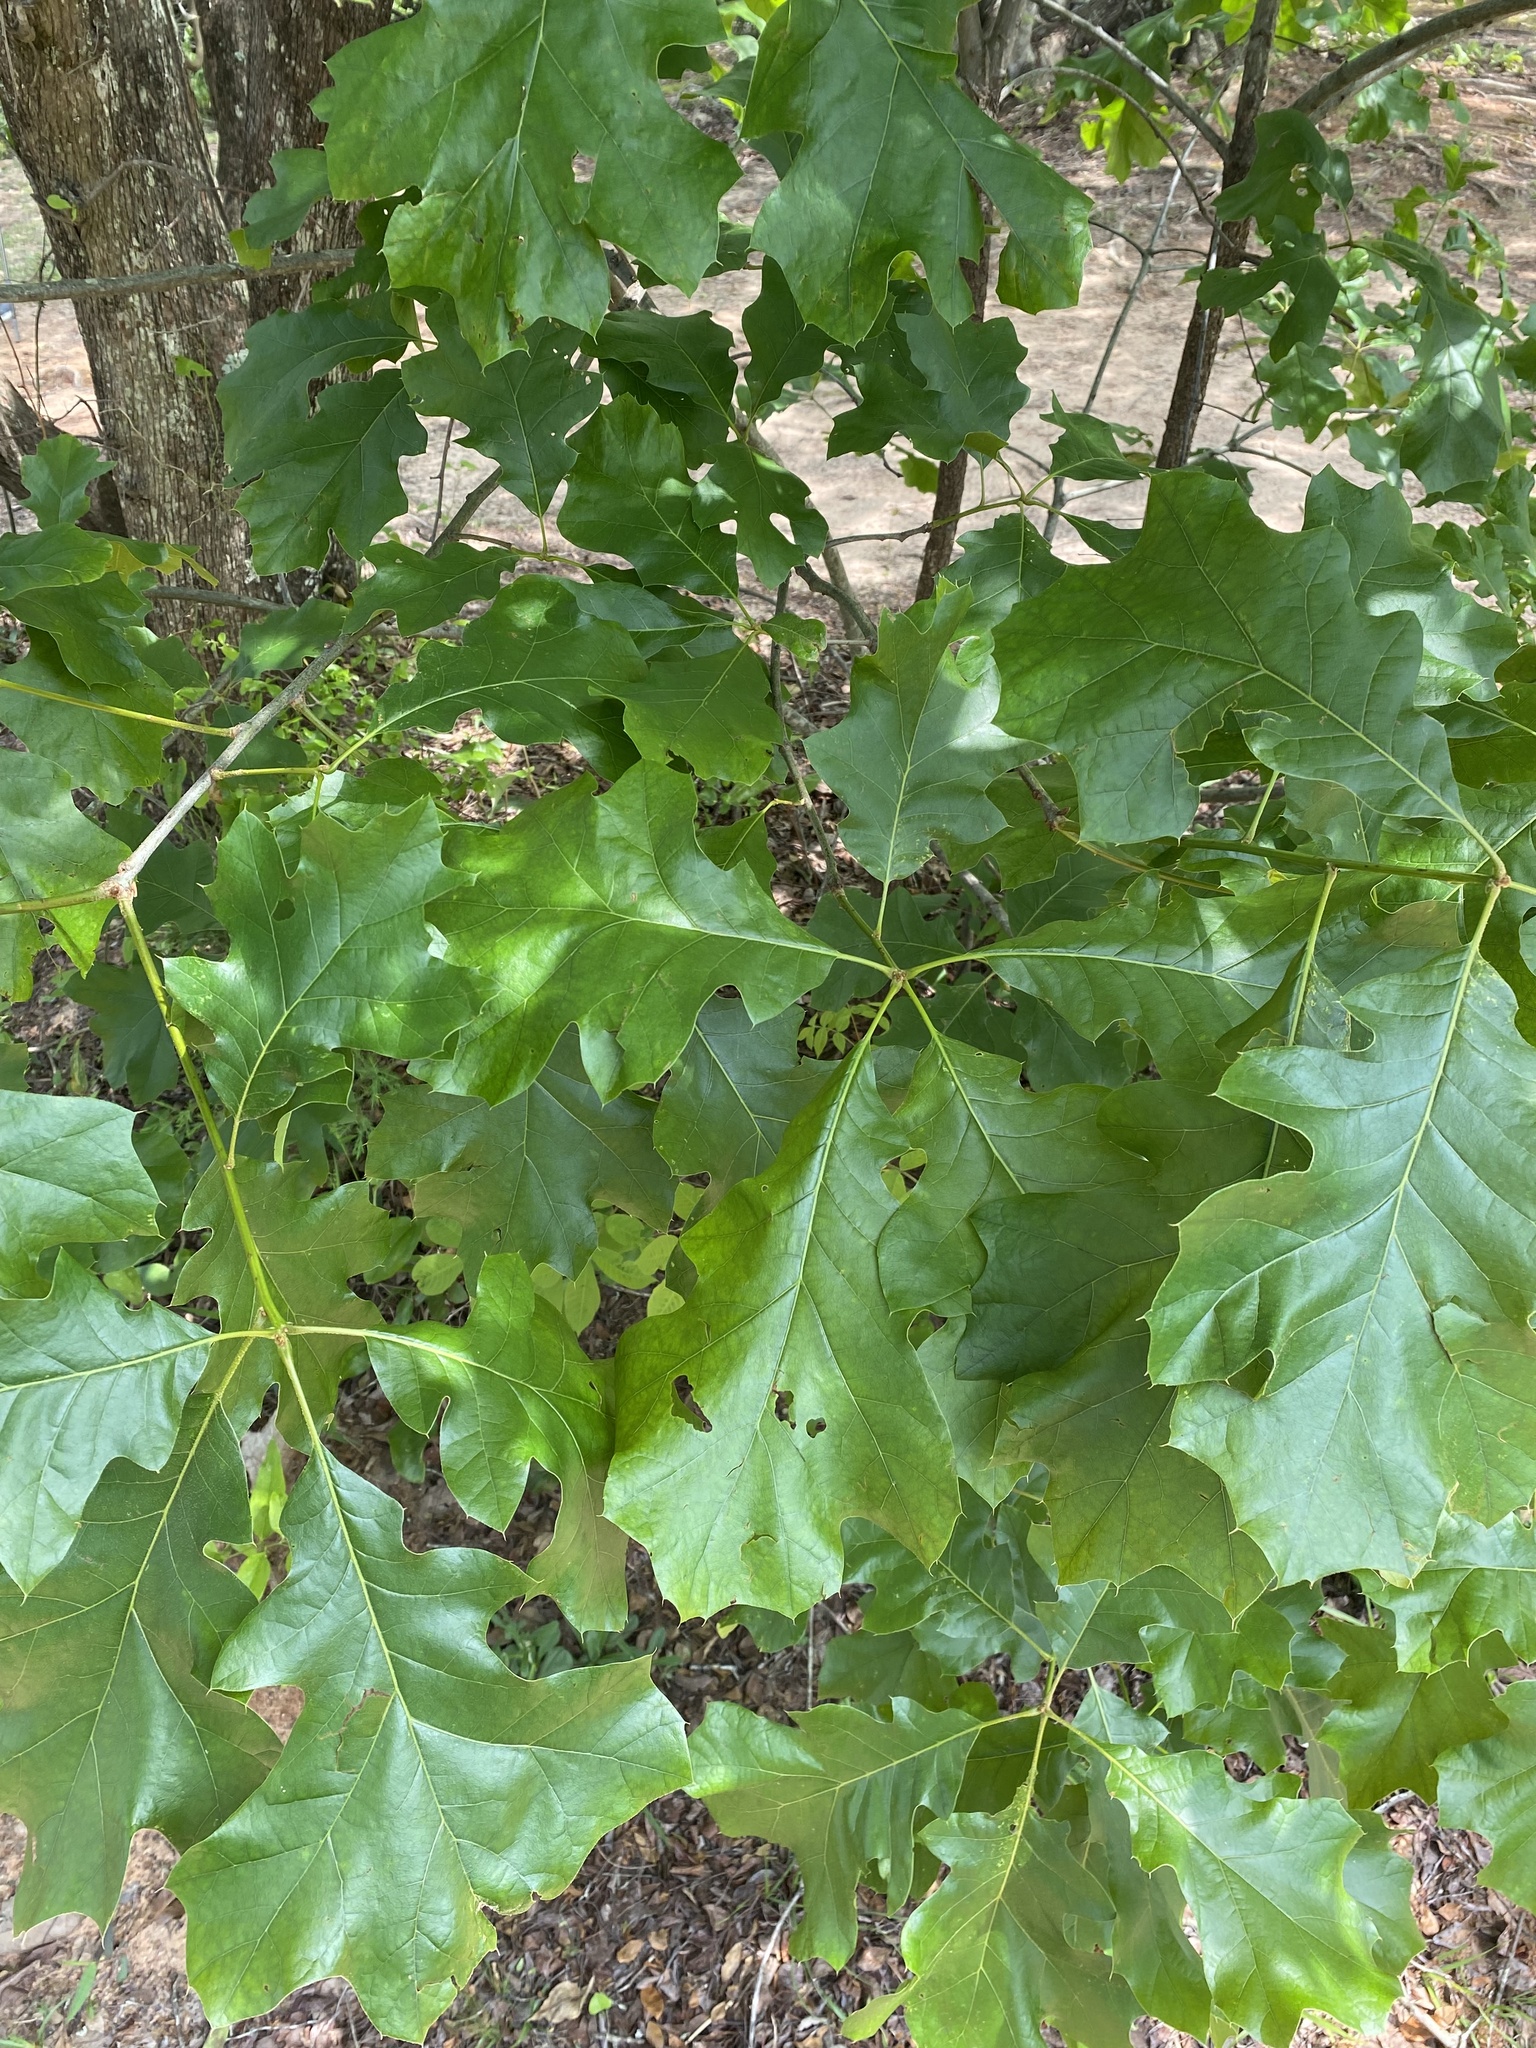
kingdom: Plantae
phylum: Tracheophyta
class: Magnoliopsida
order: Fagales
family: Fagaceae
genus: Quercus
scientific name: Quercus velutina
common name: Black oak
